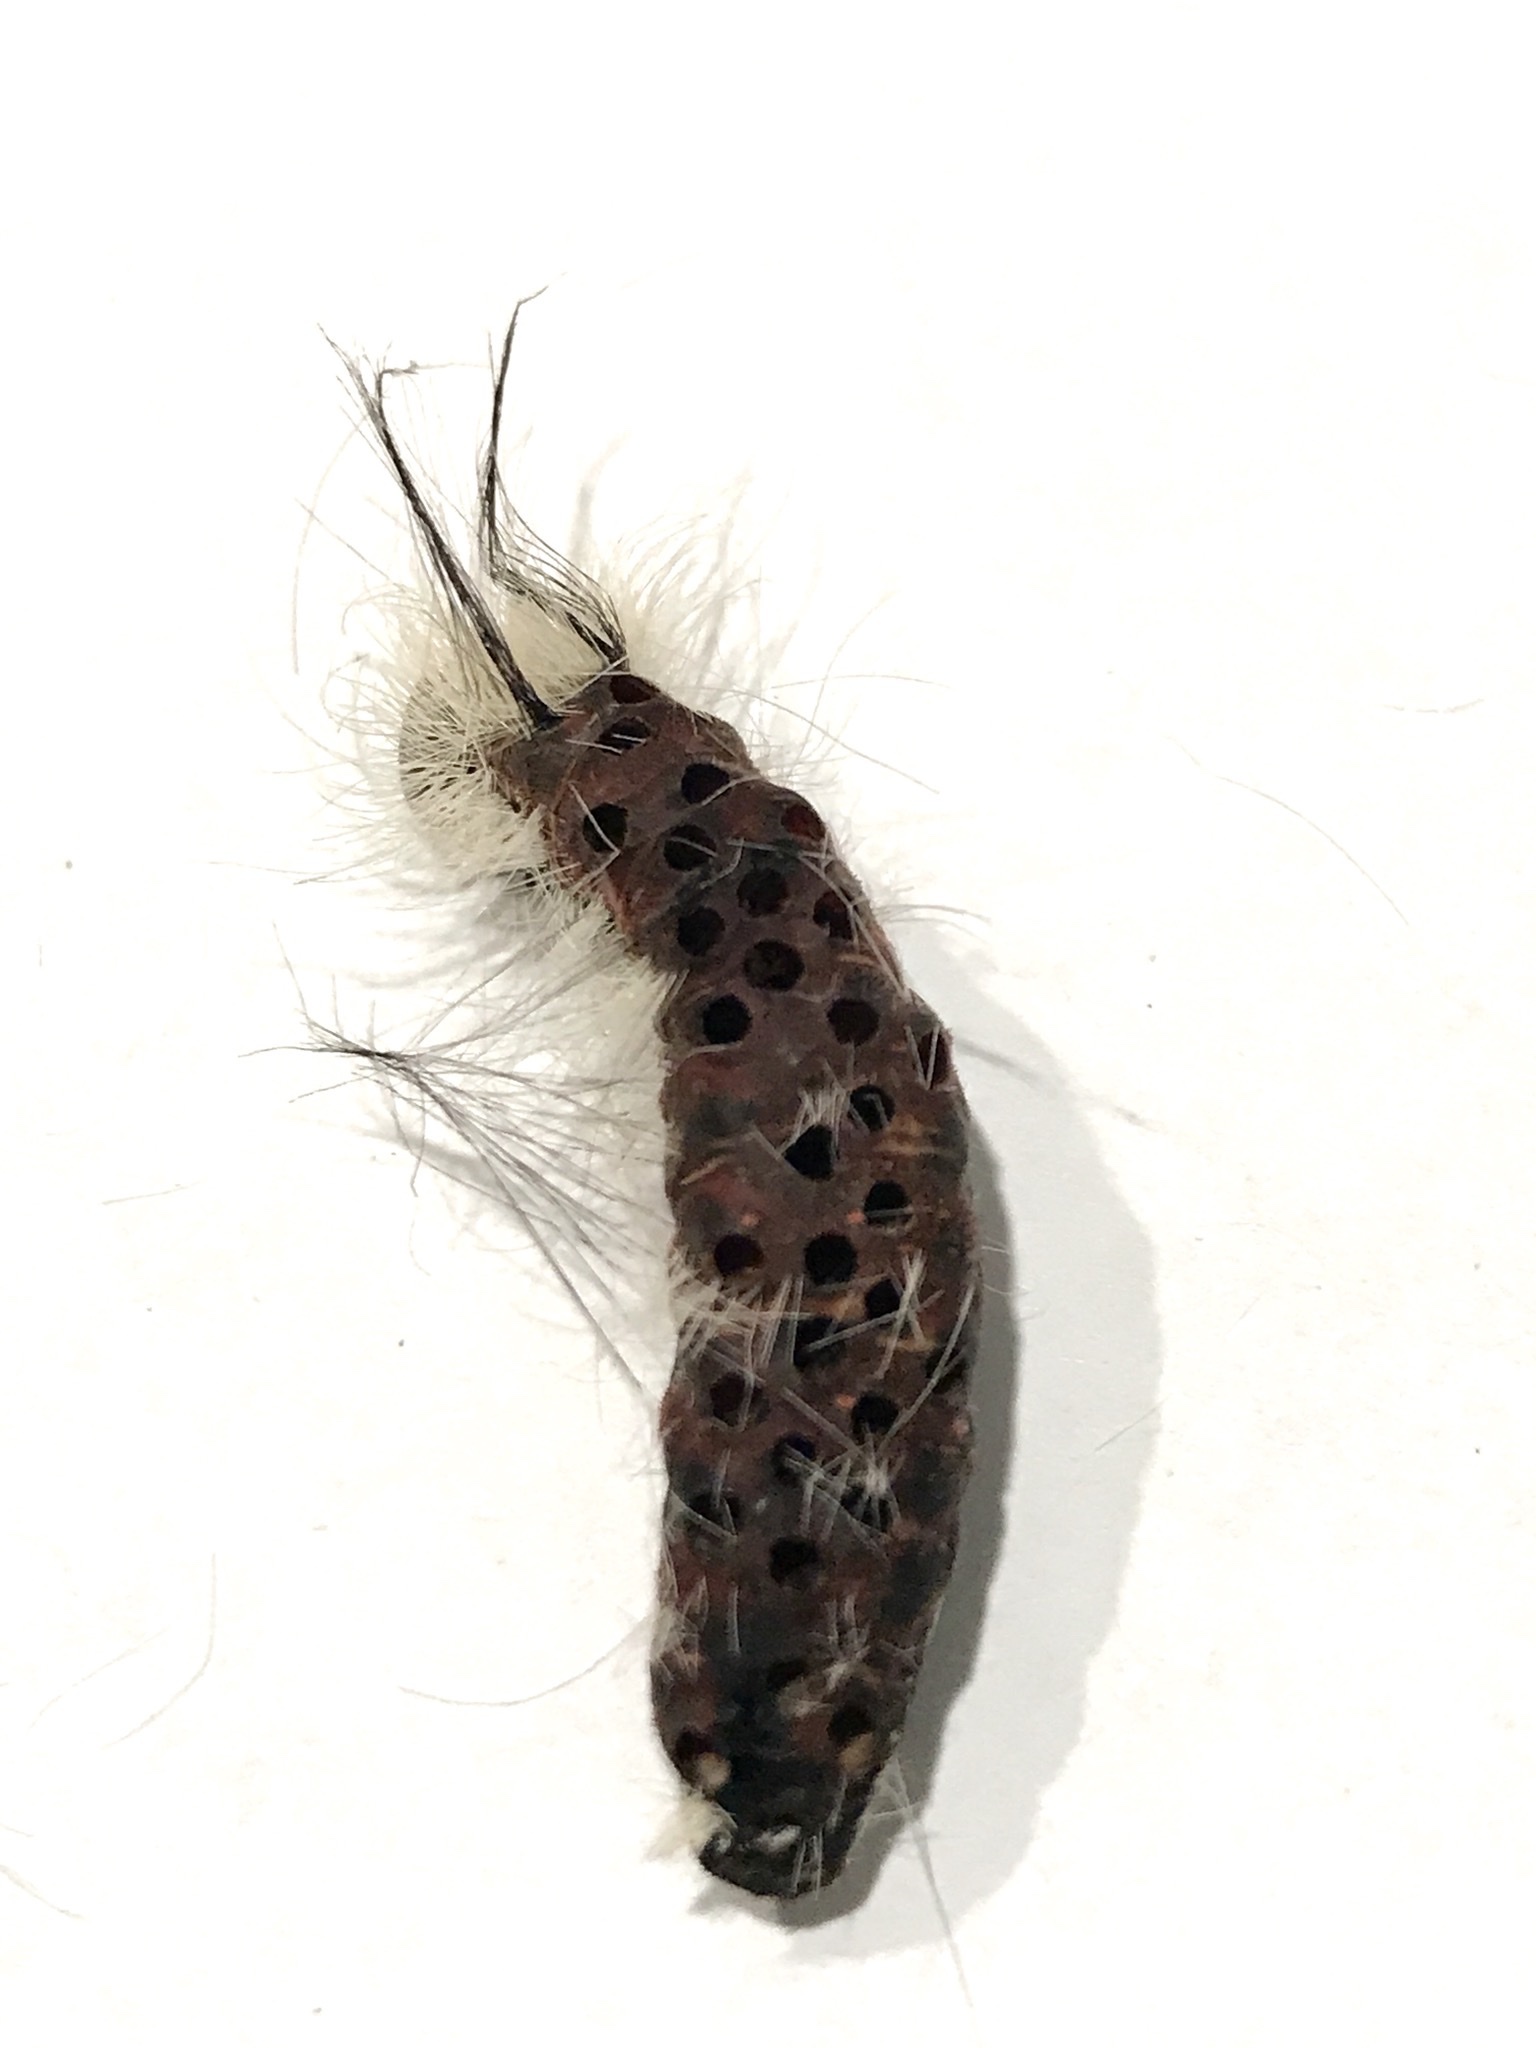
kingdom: Animalia
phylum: Arthropoda
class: Insecta
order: Lepidoptera
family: Noctuidae
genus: Acronicta
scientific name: Acronicta americana
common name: American dagger
